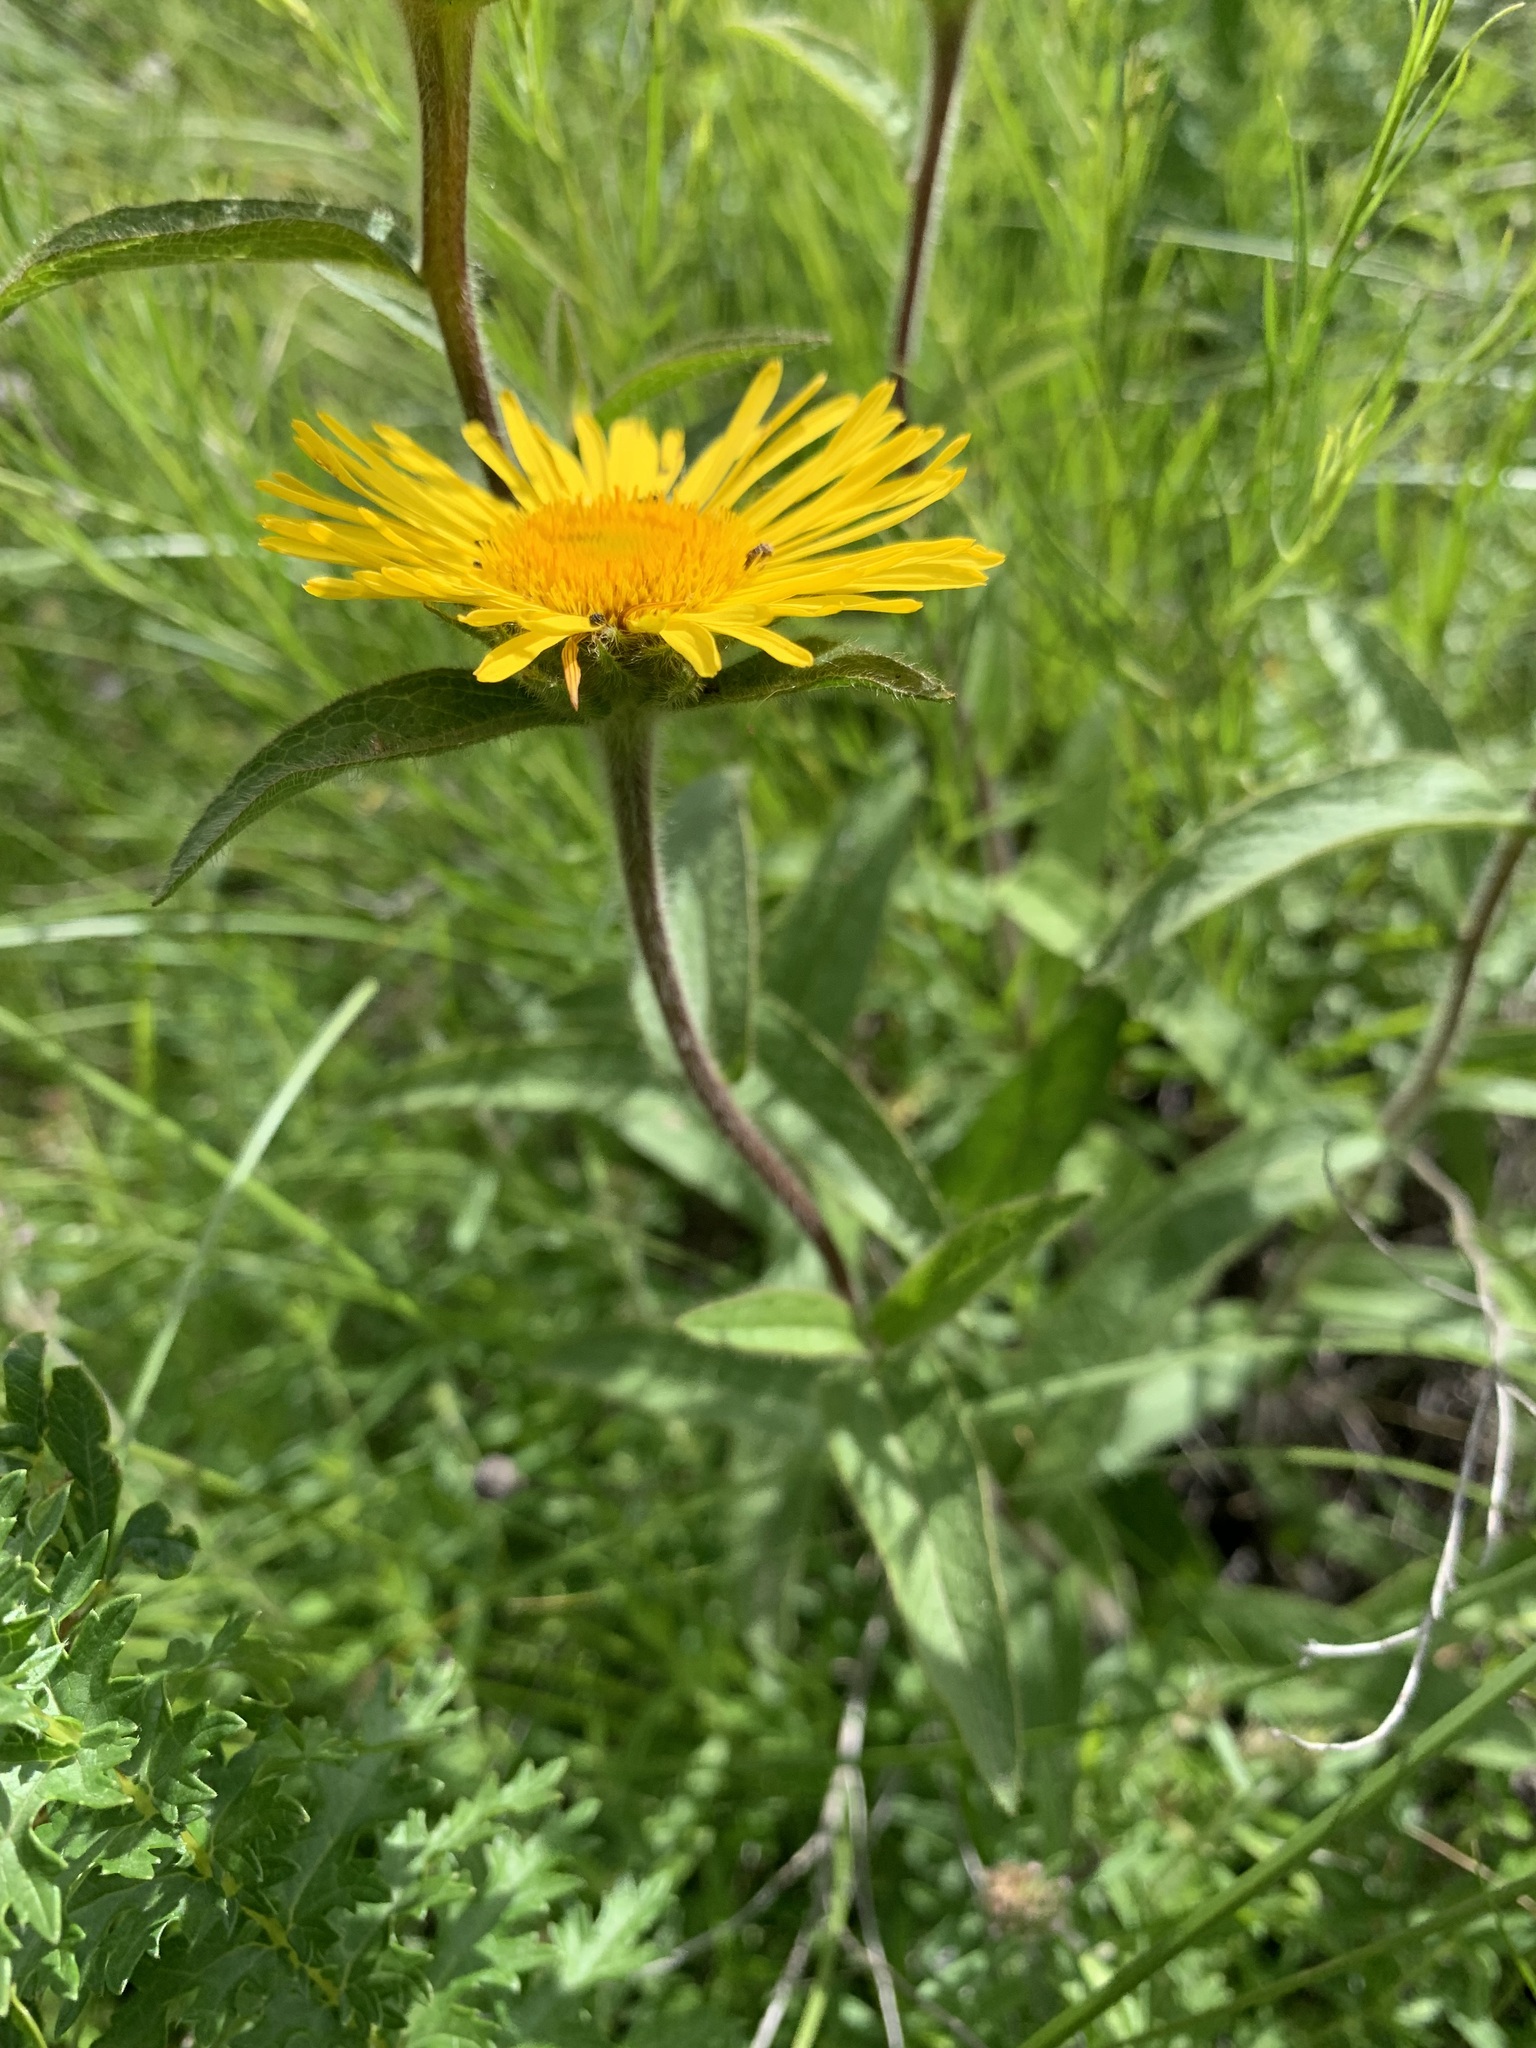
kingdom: Plantae
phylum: Tracheophyta
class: Magnoliopsida
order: Asterales
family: Asteraceae
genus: Pentanema
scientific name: Pentanema hirtum
